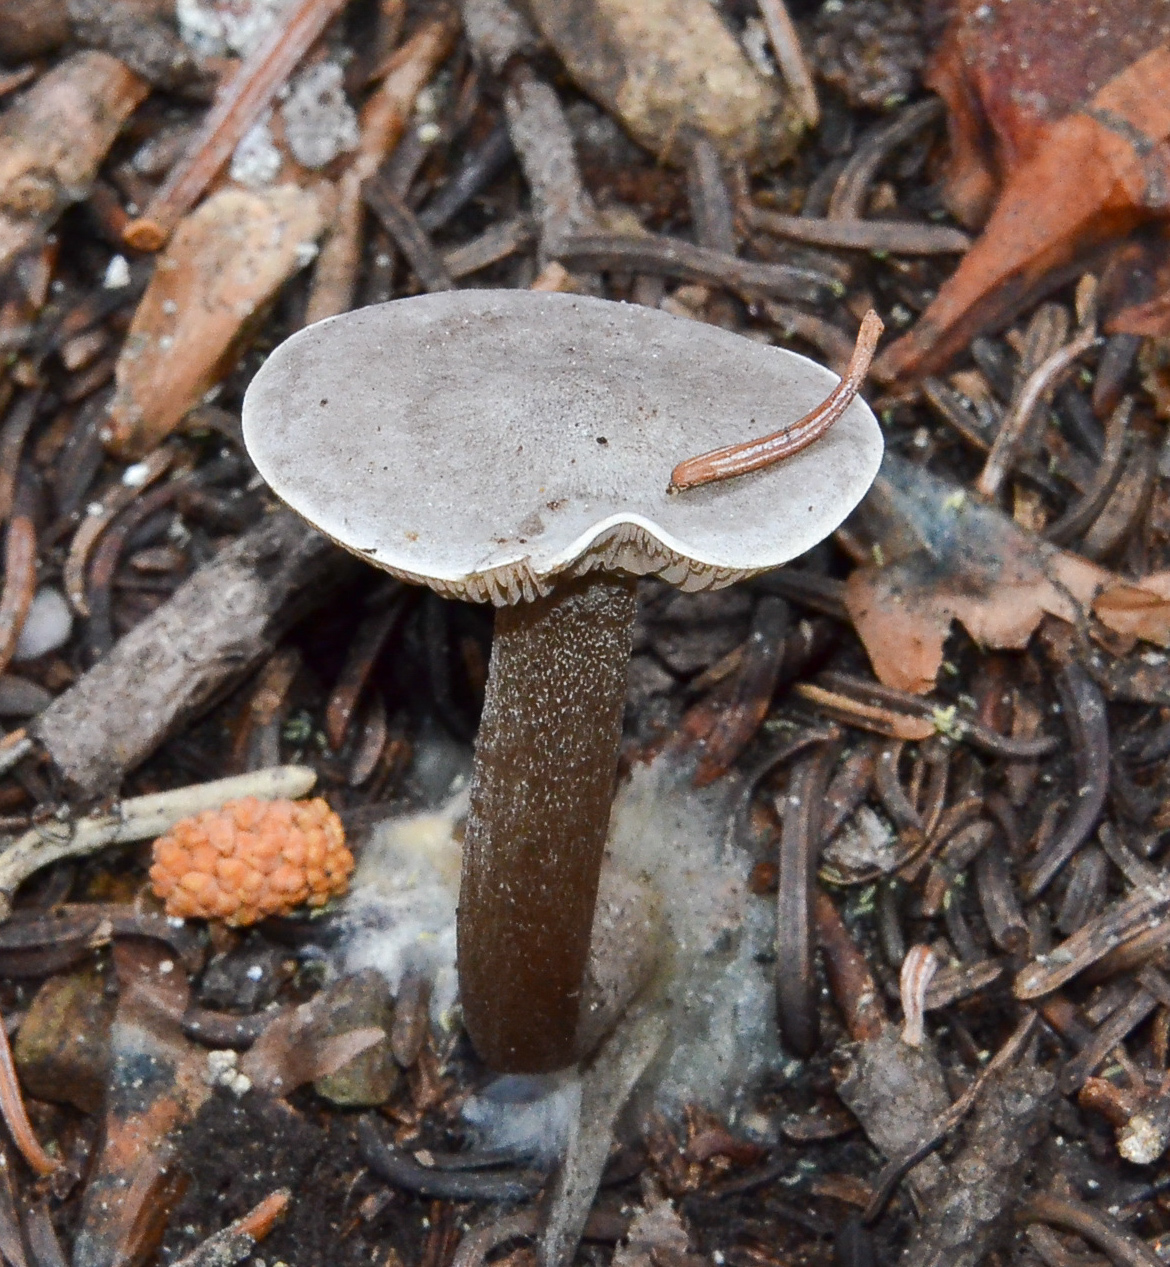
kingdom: Fungi
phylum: Basidiomycota
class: Agaricomycetes
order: Agaricales
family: Tricholomataceae
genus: Clitocybe
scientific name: Clitocybe glacialis
